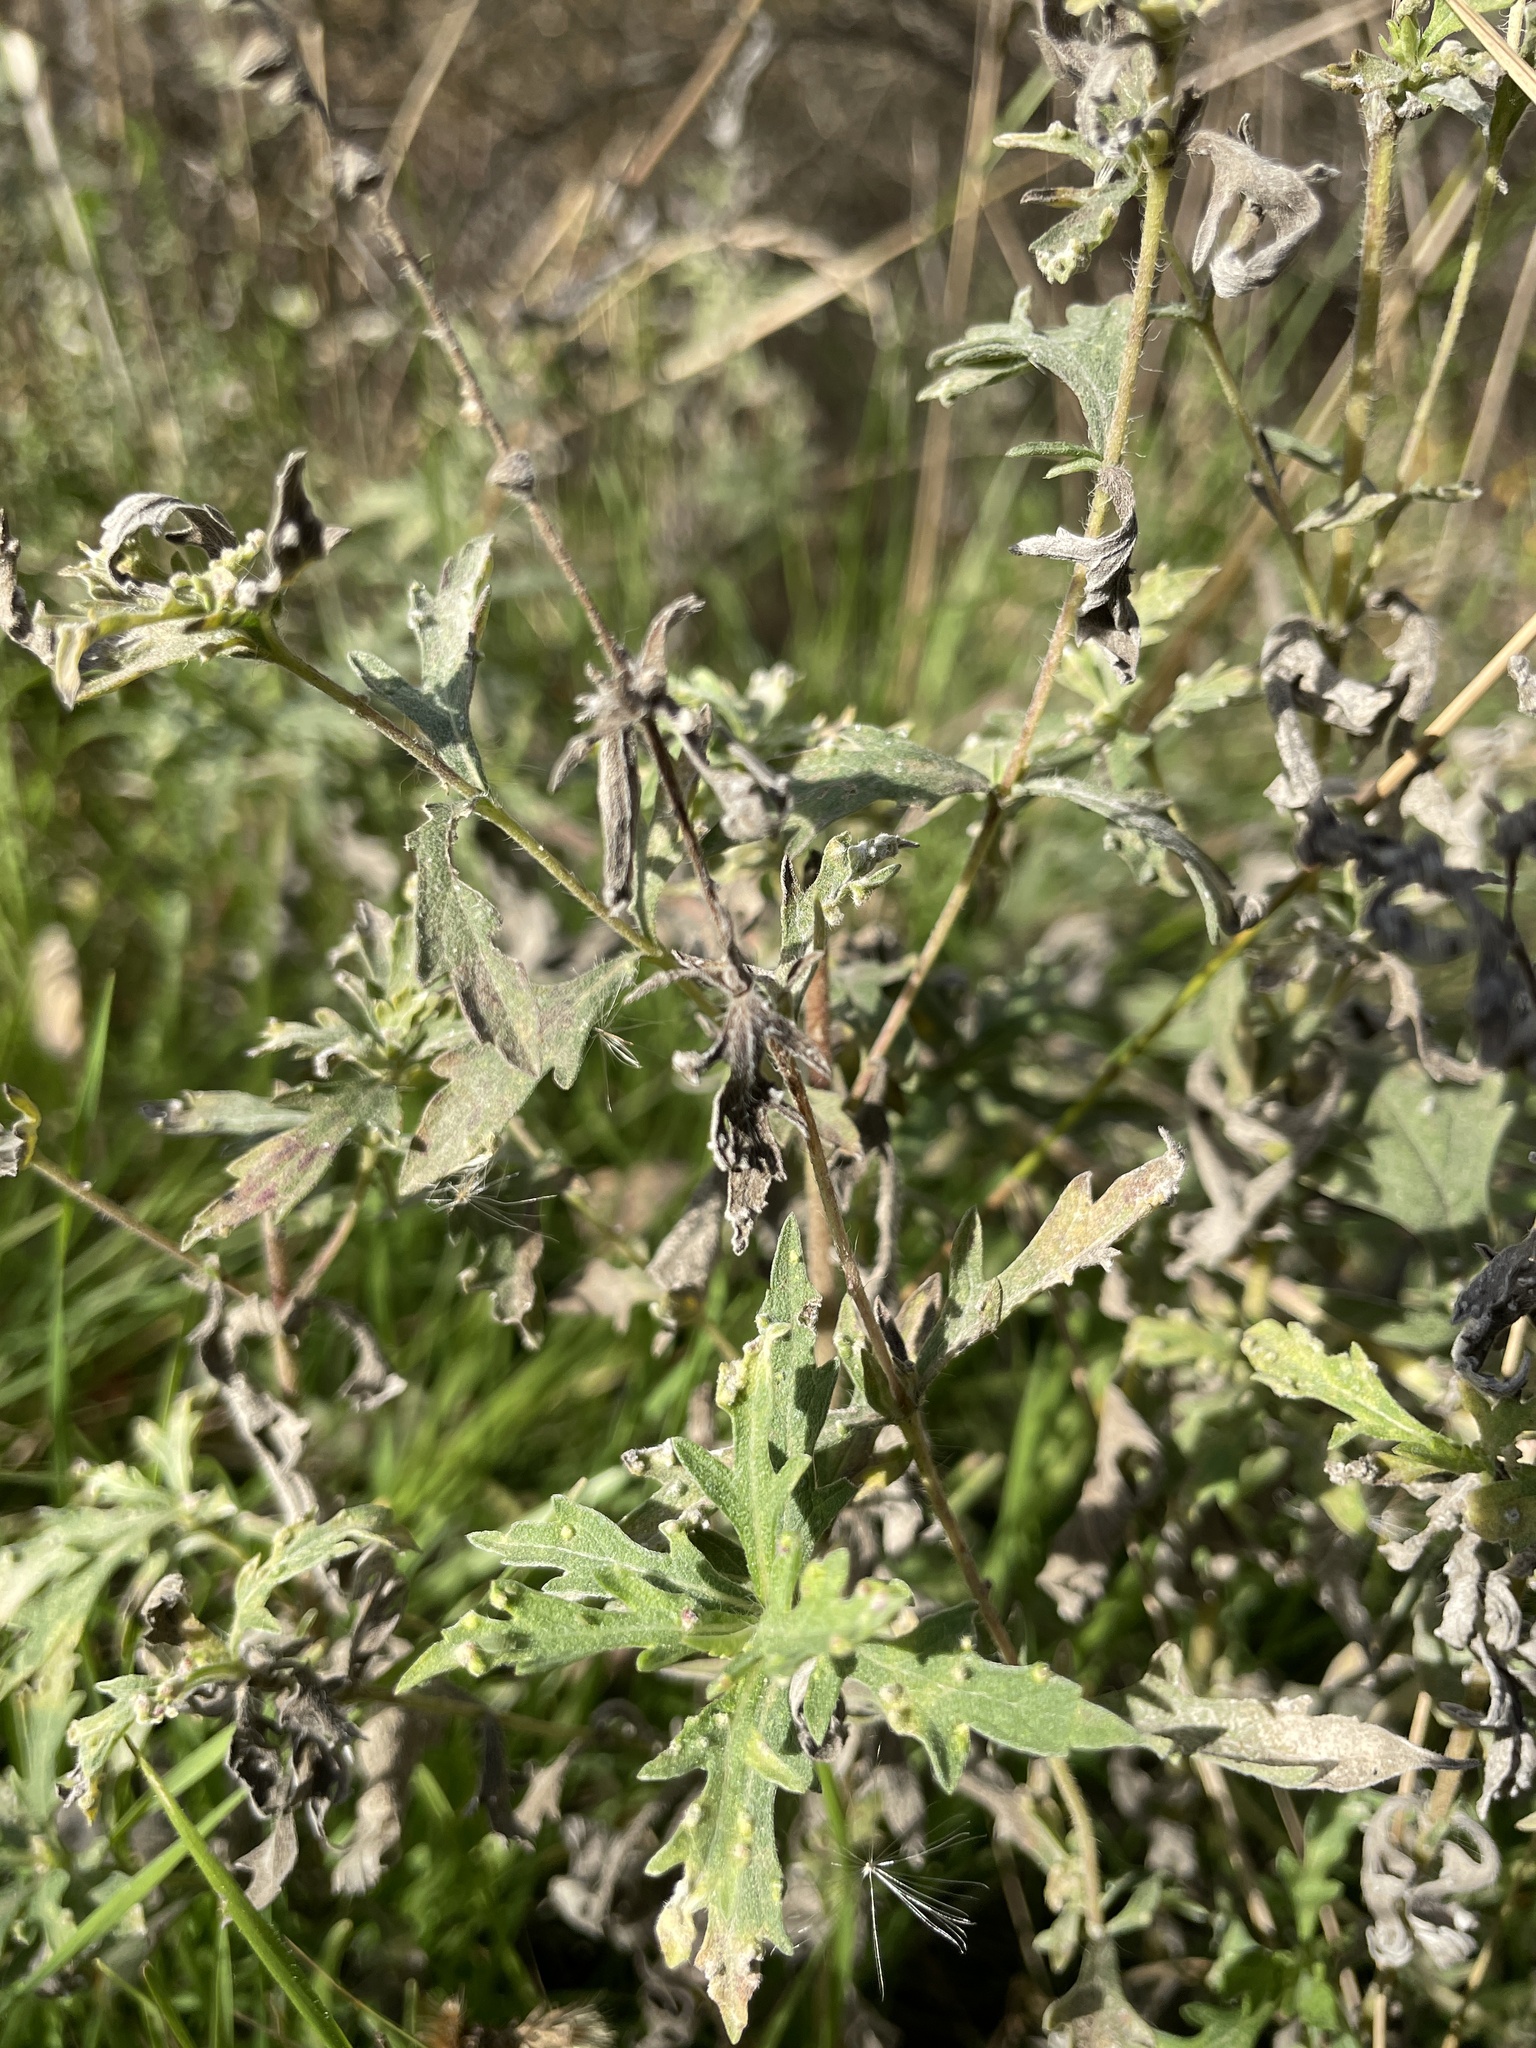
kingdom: Plantae
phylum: Tracheophyta
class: Magnoliopsida
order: Asterales
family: Asteraceae
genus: Ambrosia
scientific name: Ambrosia psilostachya
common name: Perennial ragweed
